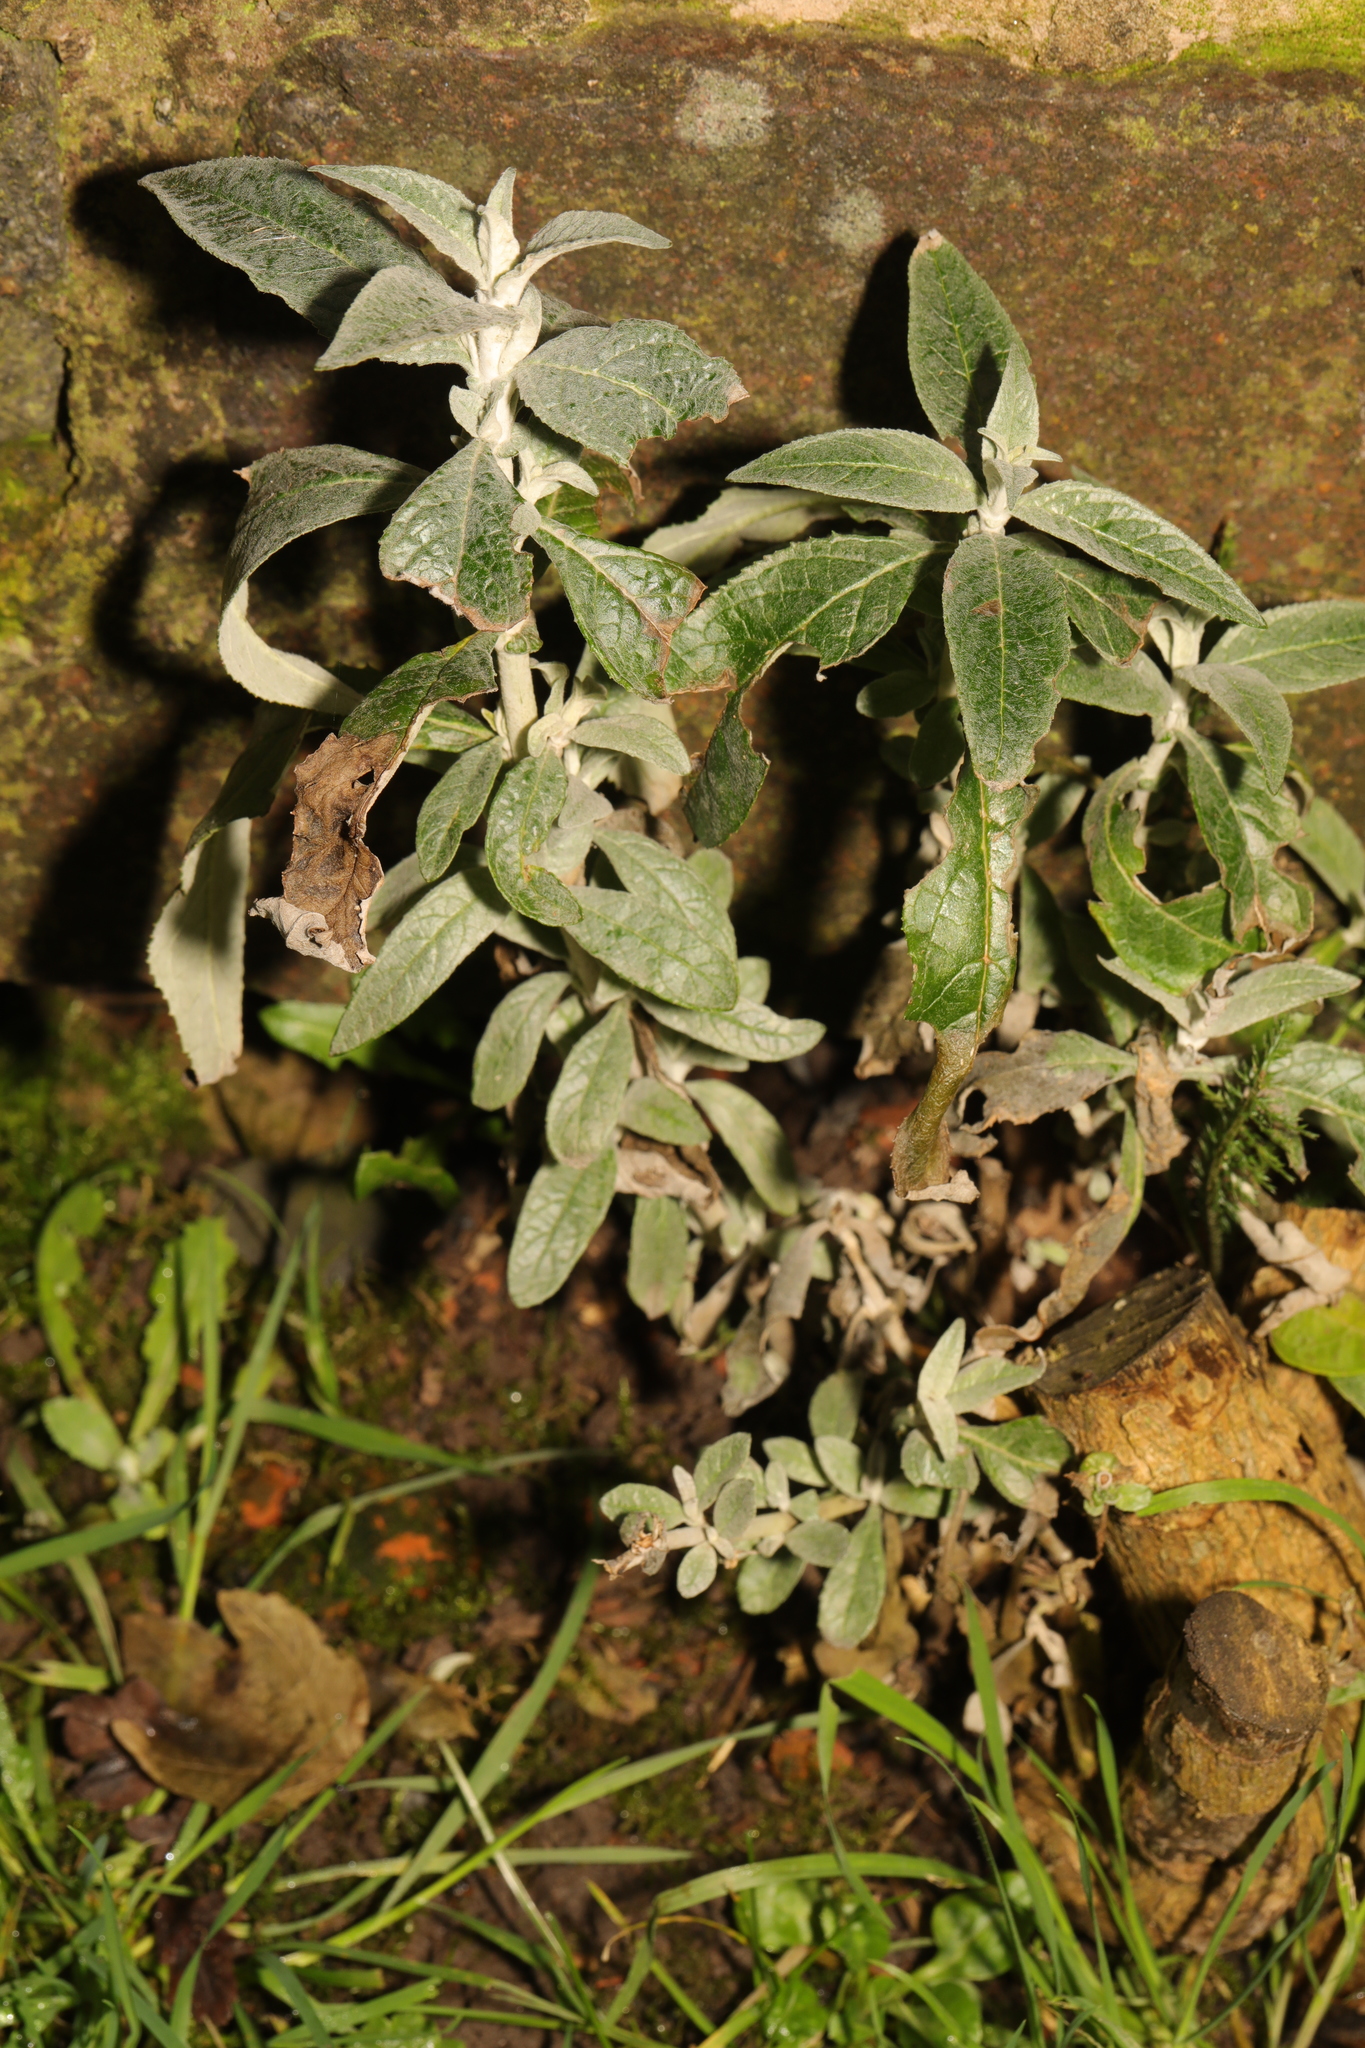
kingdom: Plantae
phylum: Tracheophyta
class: Magnoliopsida
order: Lamiales
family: Scrophulariaceae
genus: Buddleja
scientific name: Buddleja davidii
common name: Butterfly-bush
